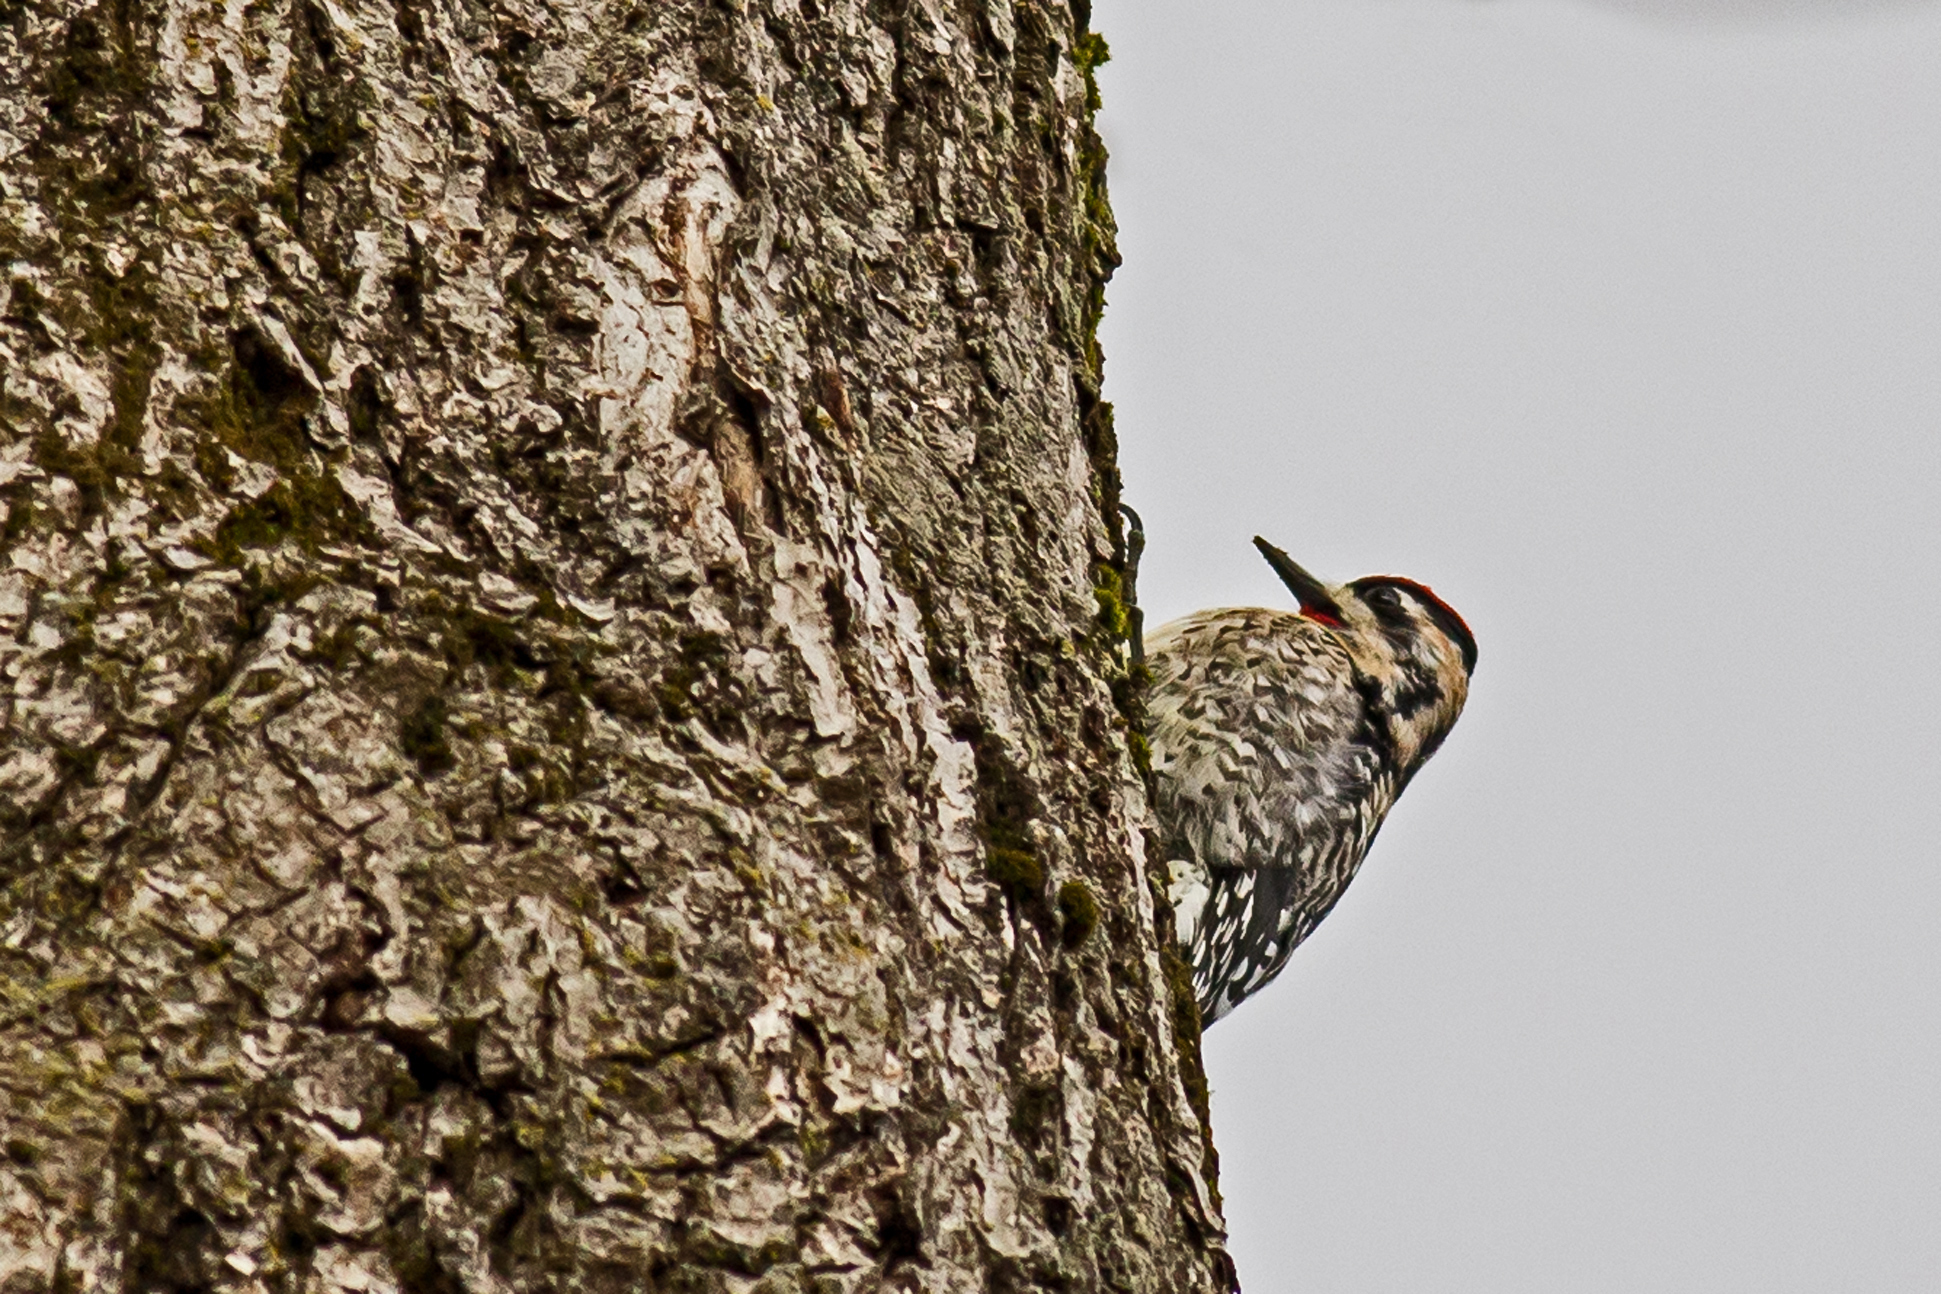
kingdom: Animalia
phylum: Chordata
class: Aves
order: Piciformes
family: Picidae
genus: Sphyrapicus
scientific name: Sphyrapicus varius
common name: Yellow-bellied sapsucker
